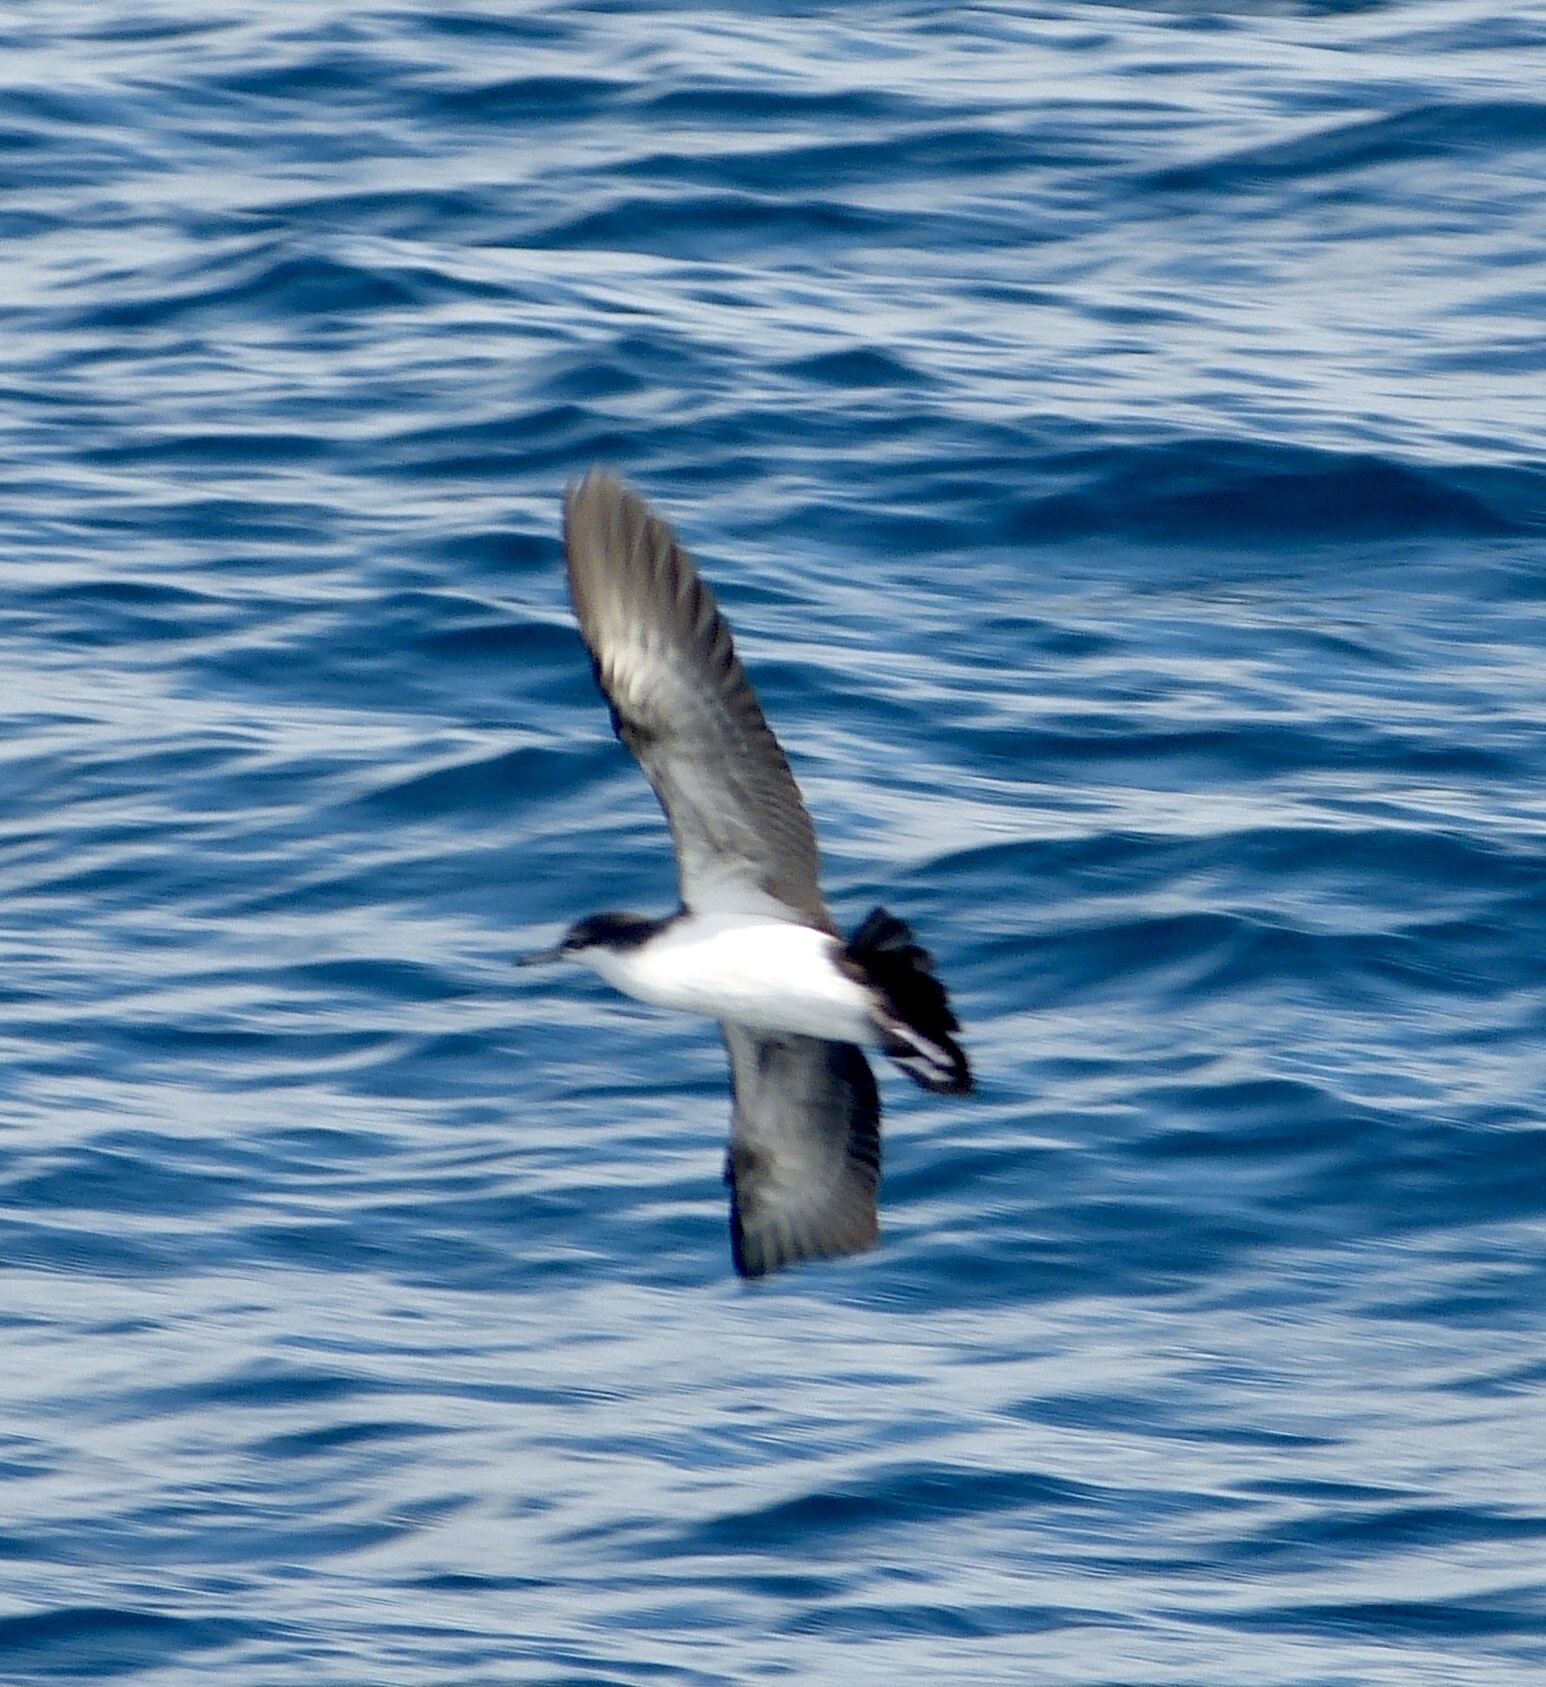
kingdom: Animalia
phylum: Chordata
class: Aves
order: Procellariiformes
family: Procellariidae
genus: Puffinus
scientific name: Puffinus subalaris
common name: Galapagos shearwater
